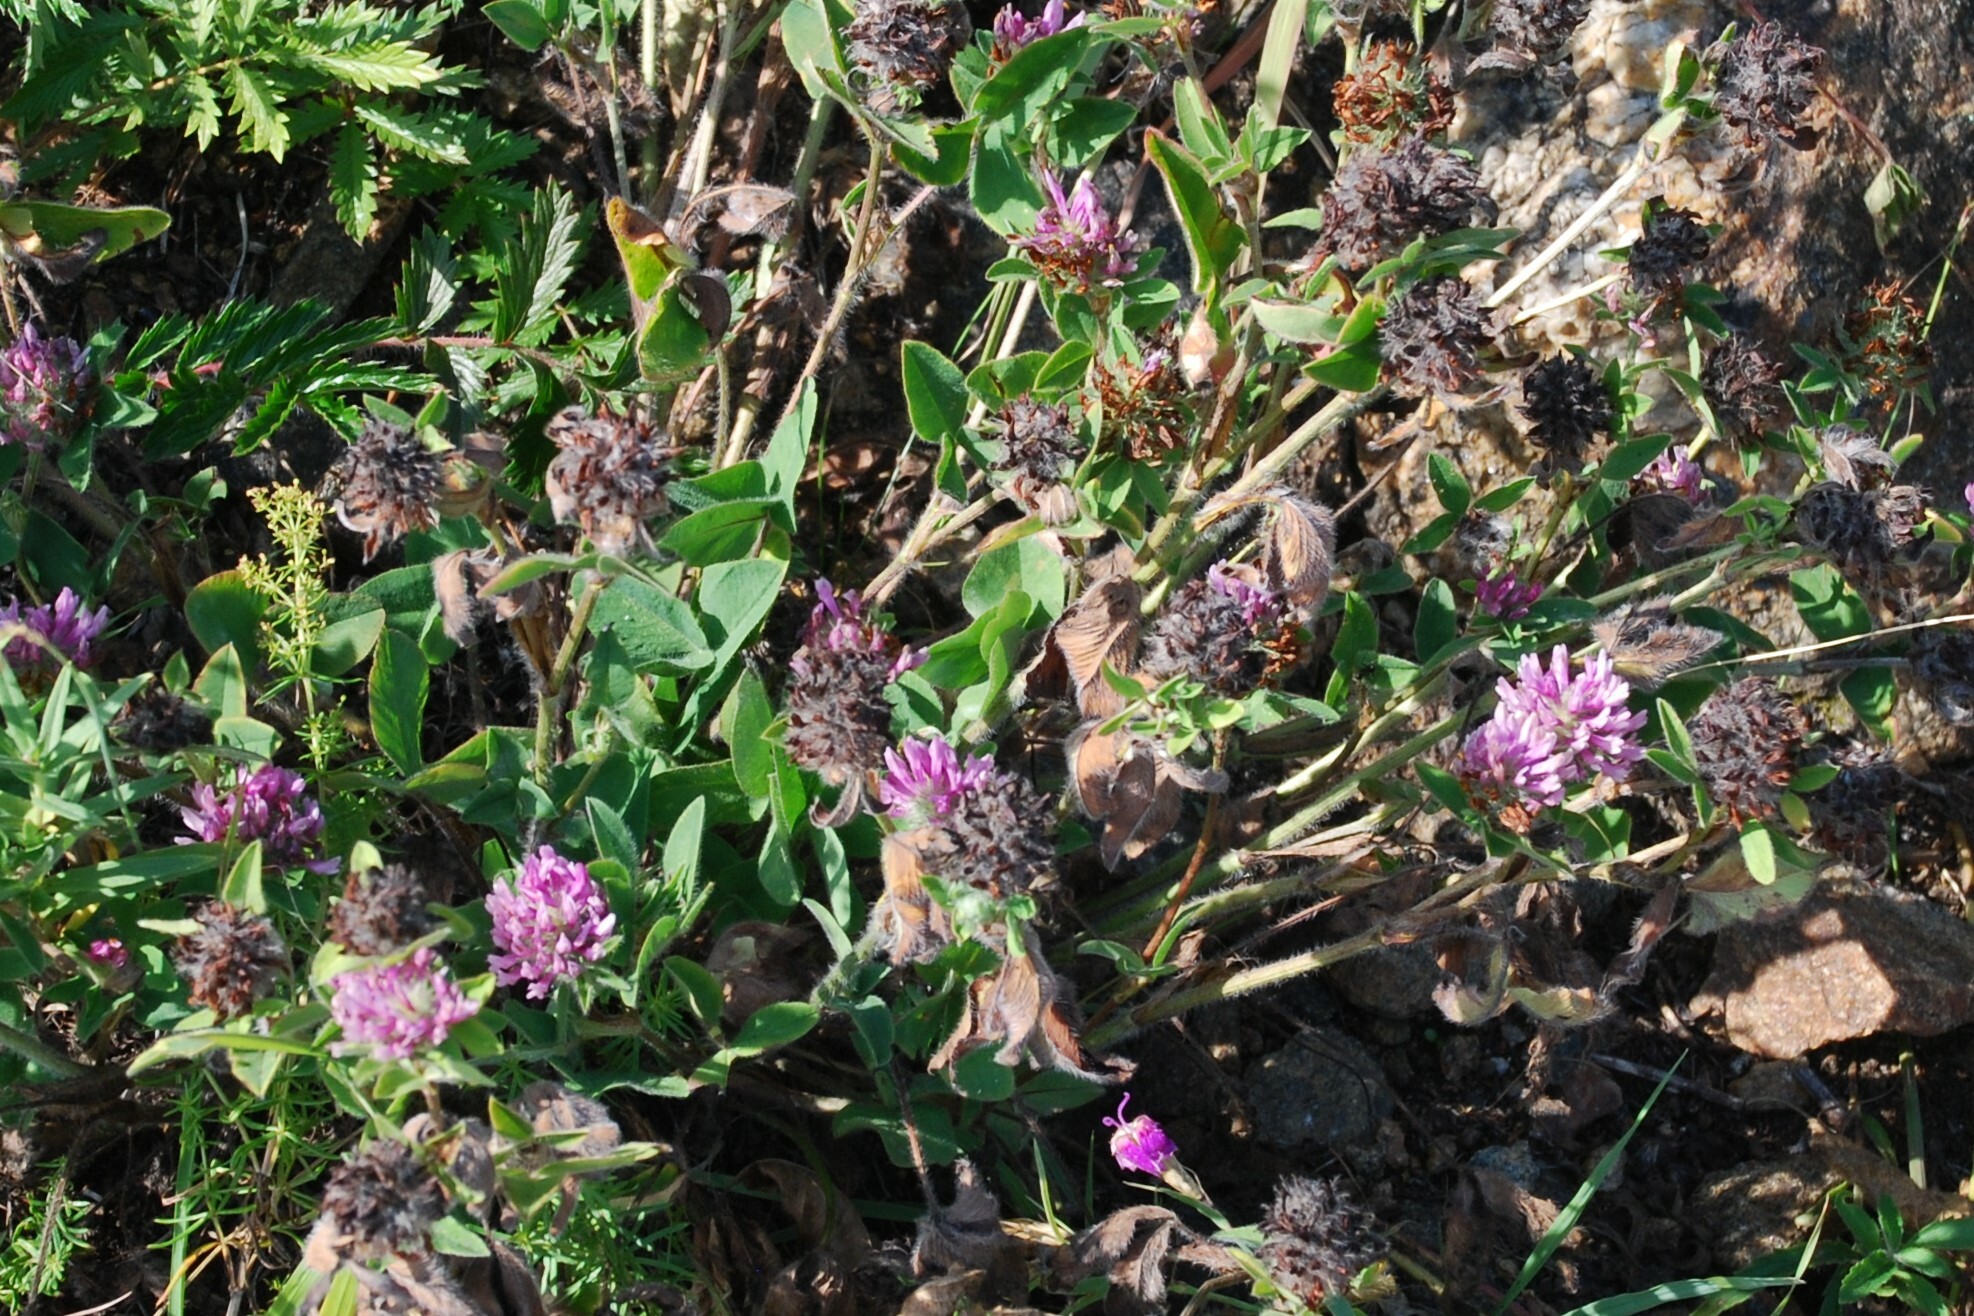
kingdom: Plantae
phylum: Tracheophyta
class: Magnoliopsida
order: Fabales
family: Fabaceae
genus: Trifolium
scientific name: Trifolium pratense
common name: Red clover
